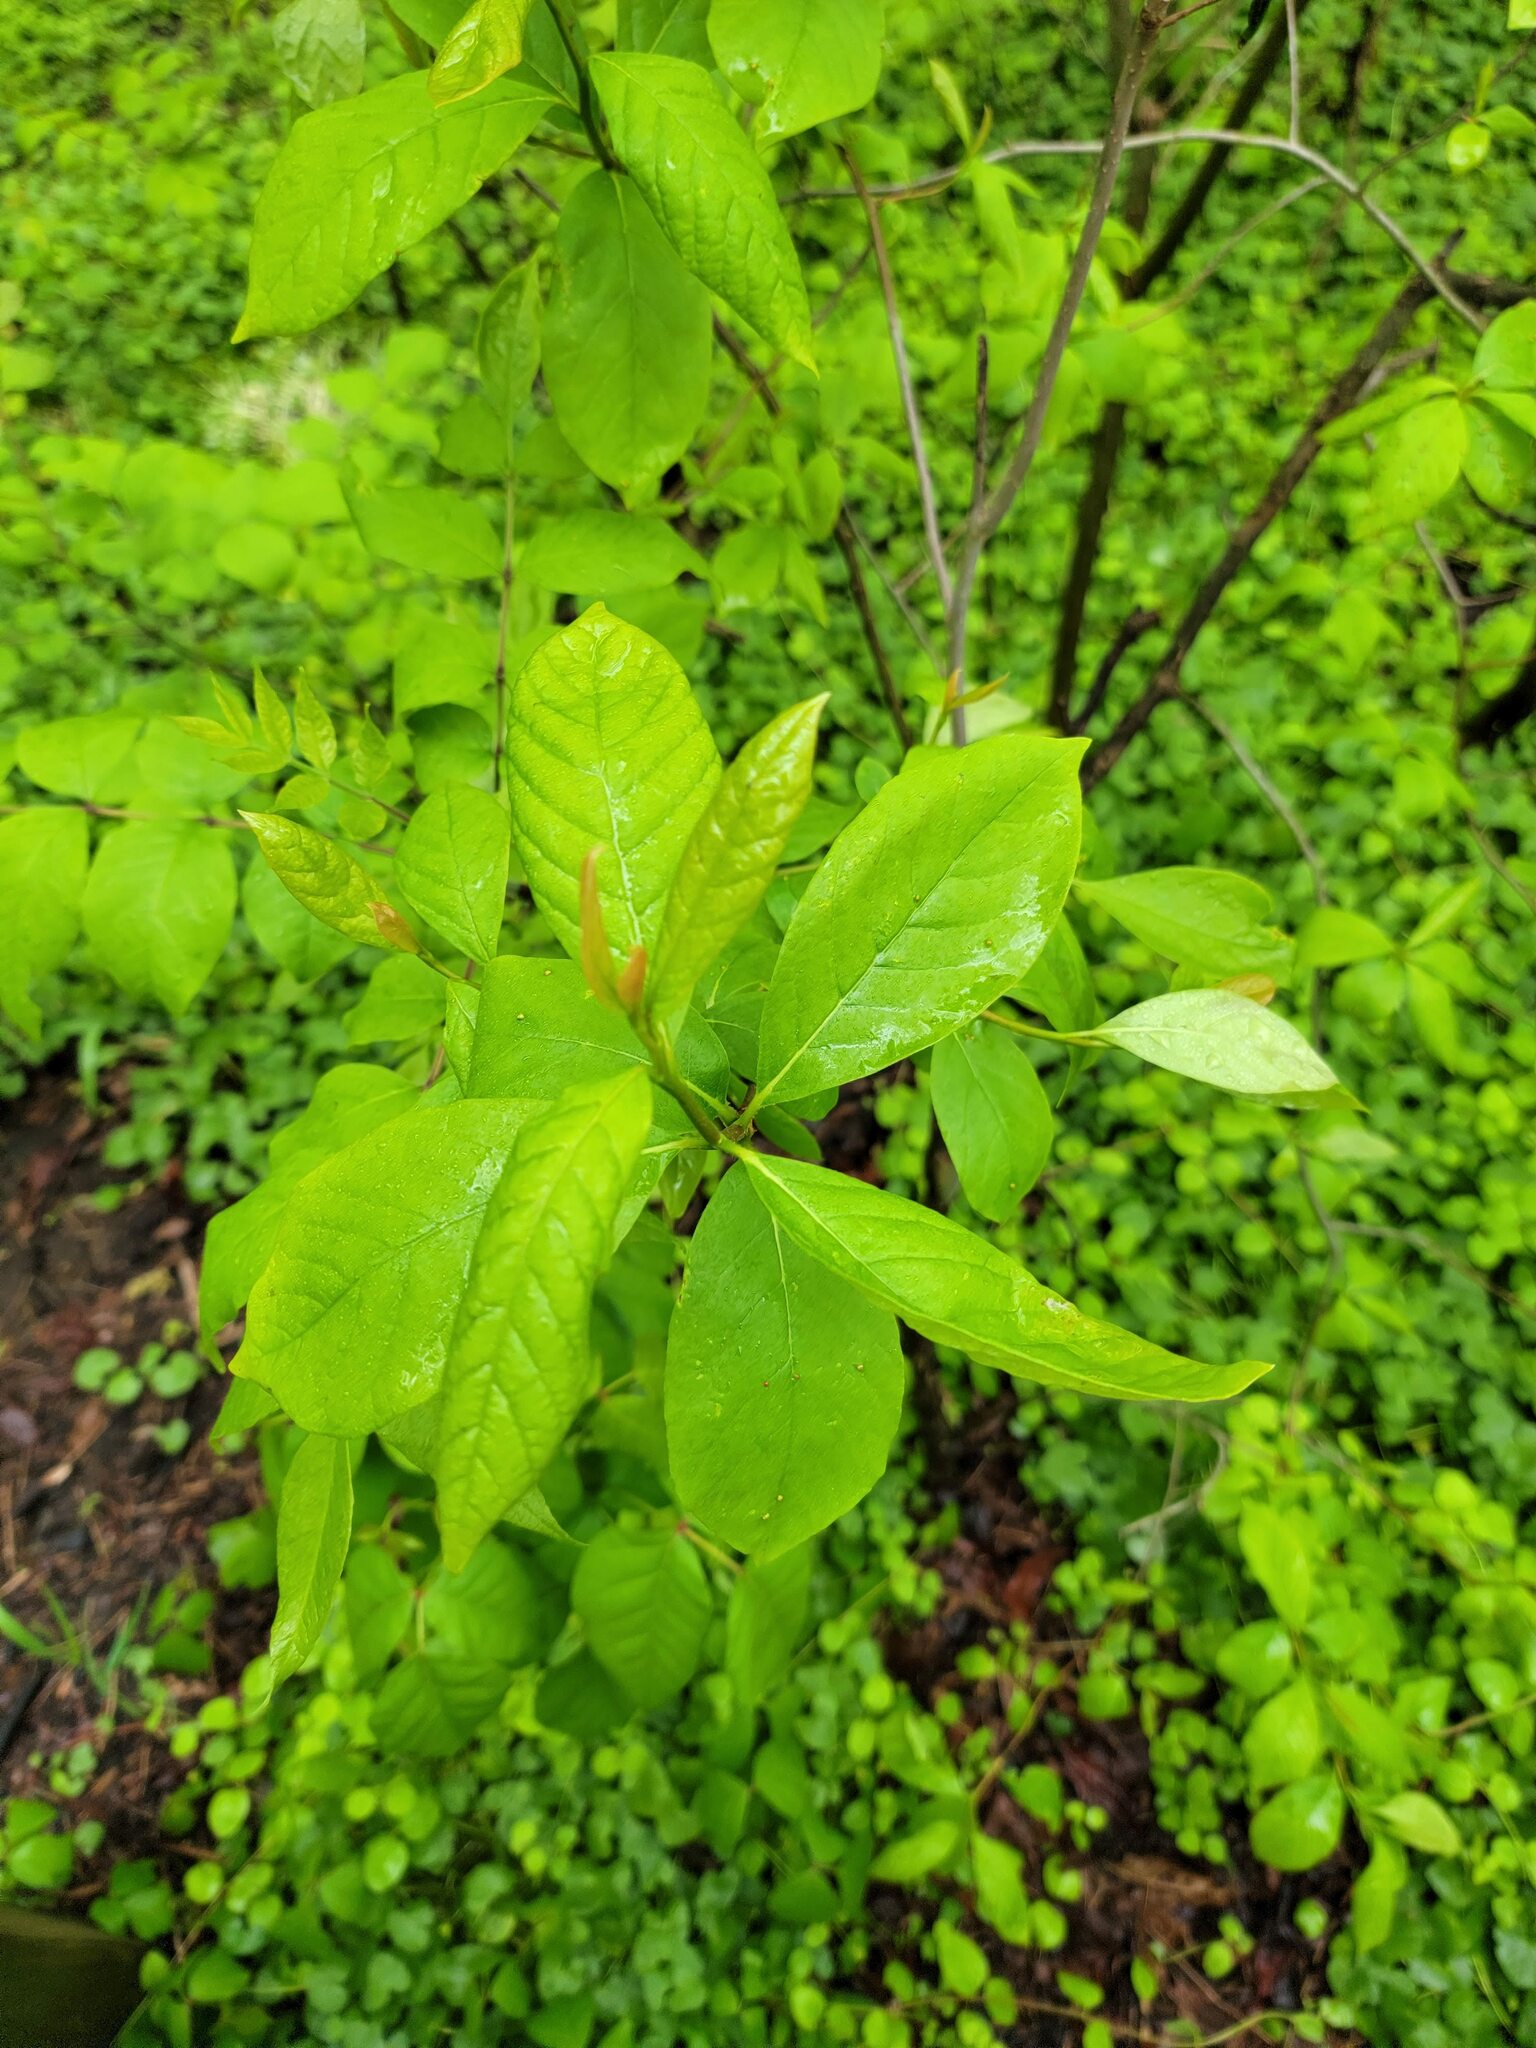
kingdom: Plantae
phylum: Tracheophyta
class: Magnoliopsida
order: Cornales
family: Nyssaceae
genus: Nyssa
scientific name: Nyssa sylvatica
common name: Black tupelo
